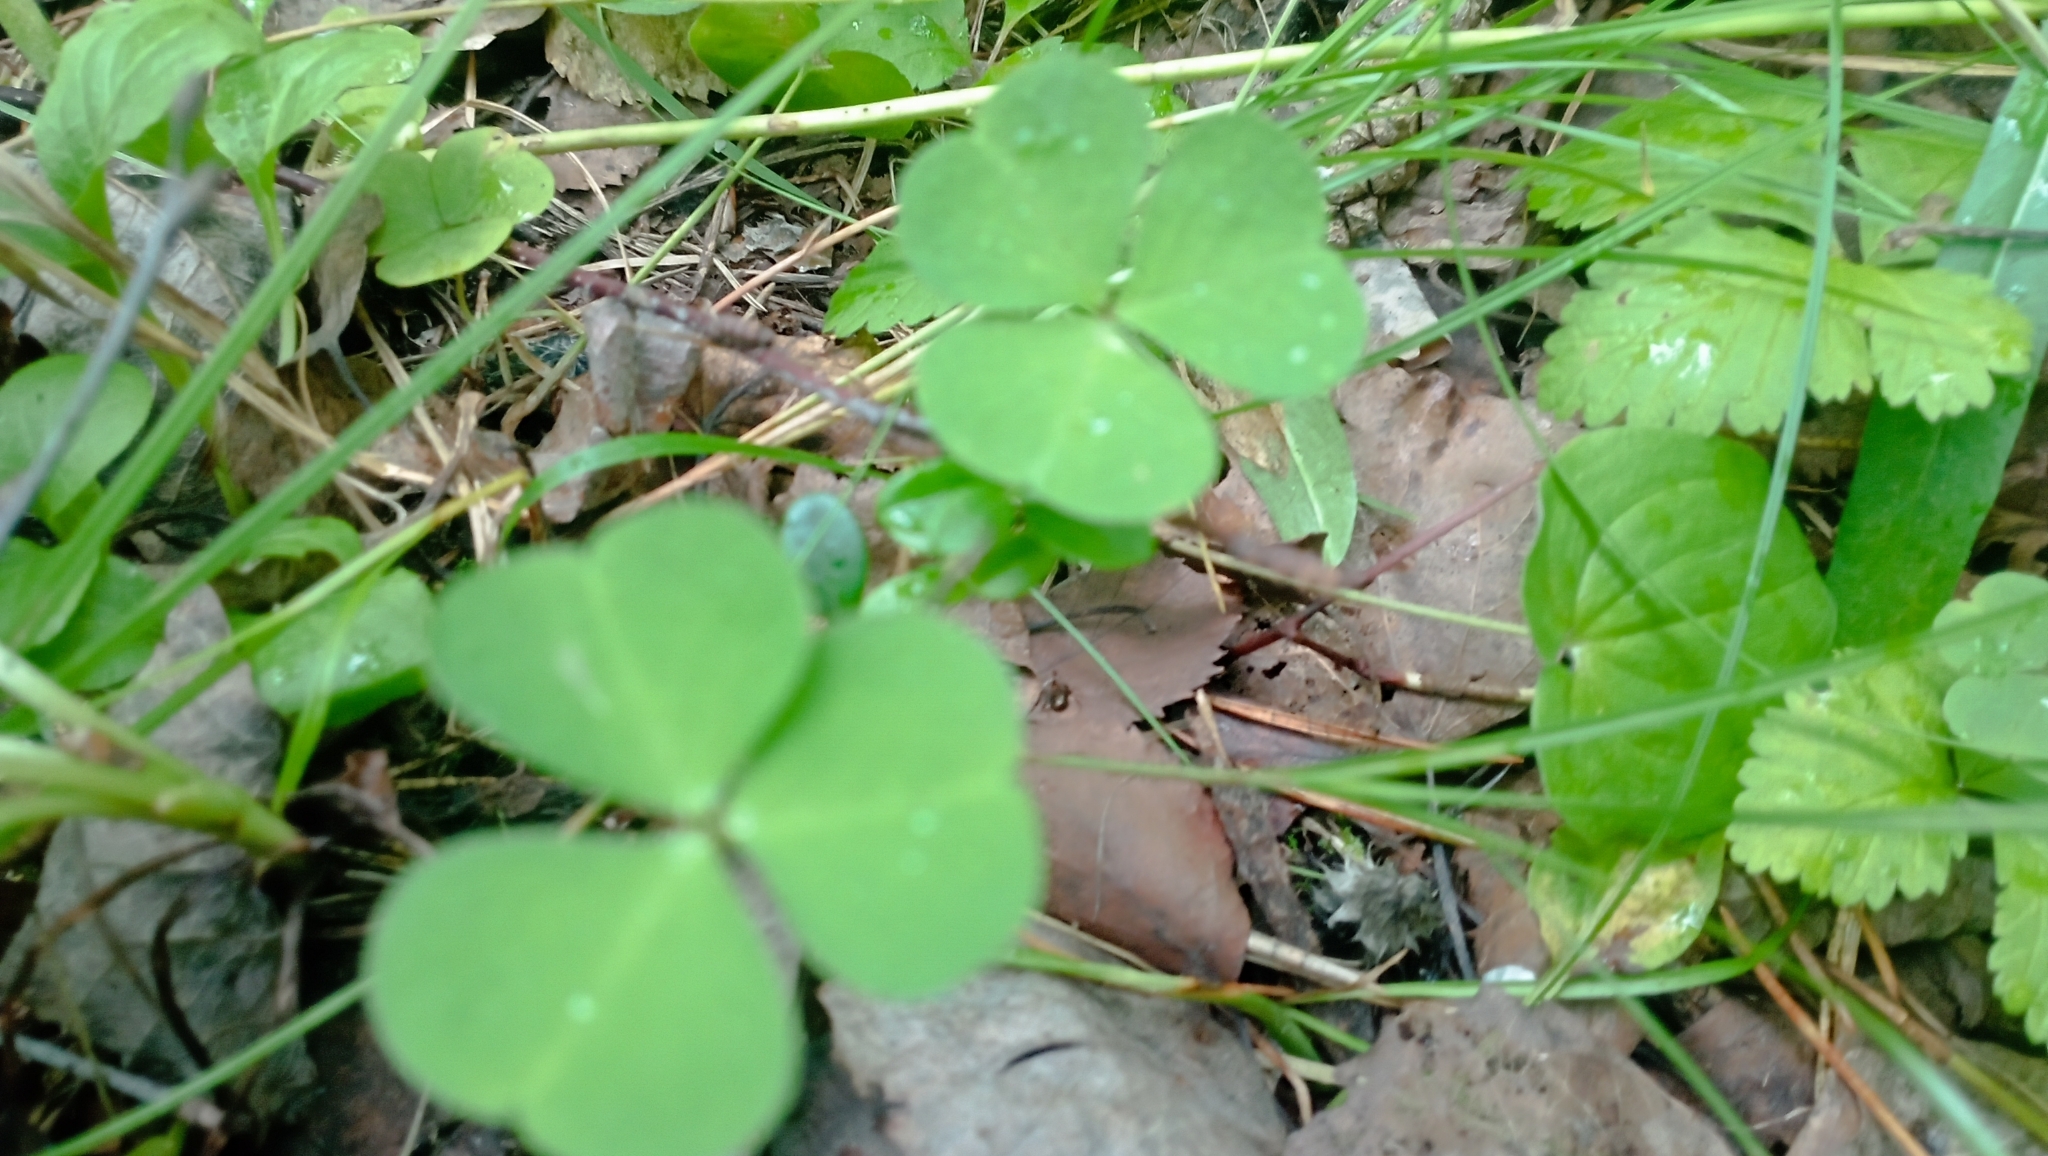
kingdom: Plantae
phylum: Tracheophyta
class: Magnoliopsida
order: Oxalidales
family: Oxalidaceae
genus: Oxalis
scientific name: Oxalis acetosella
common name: Wood-sorrel
